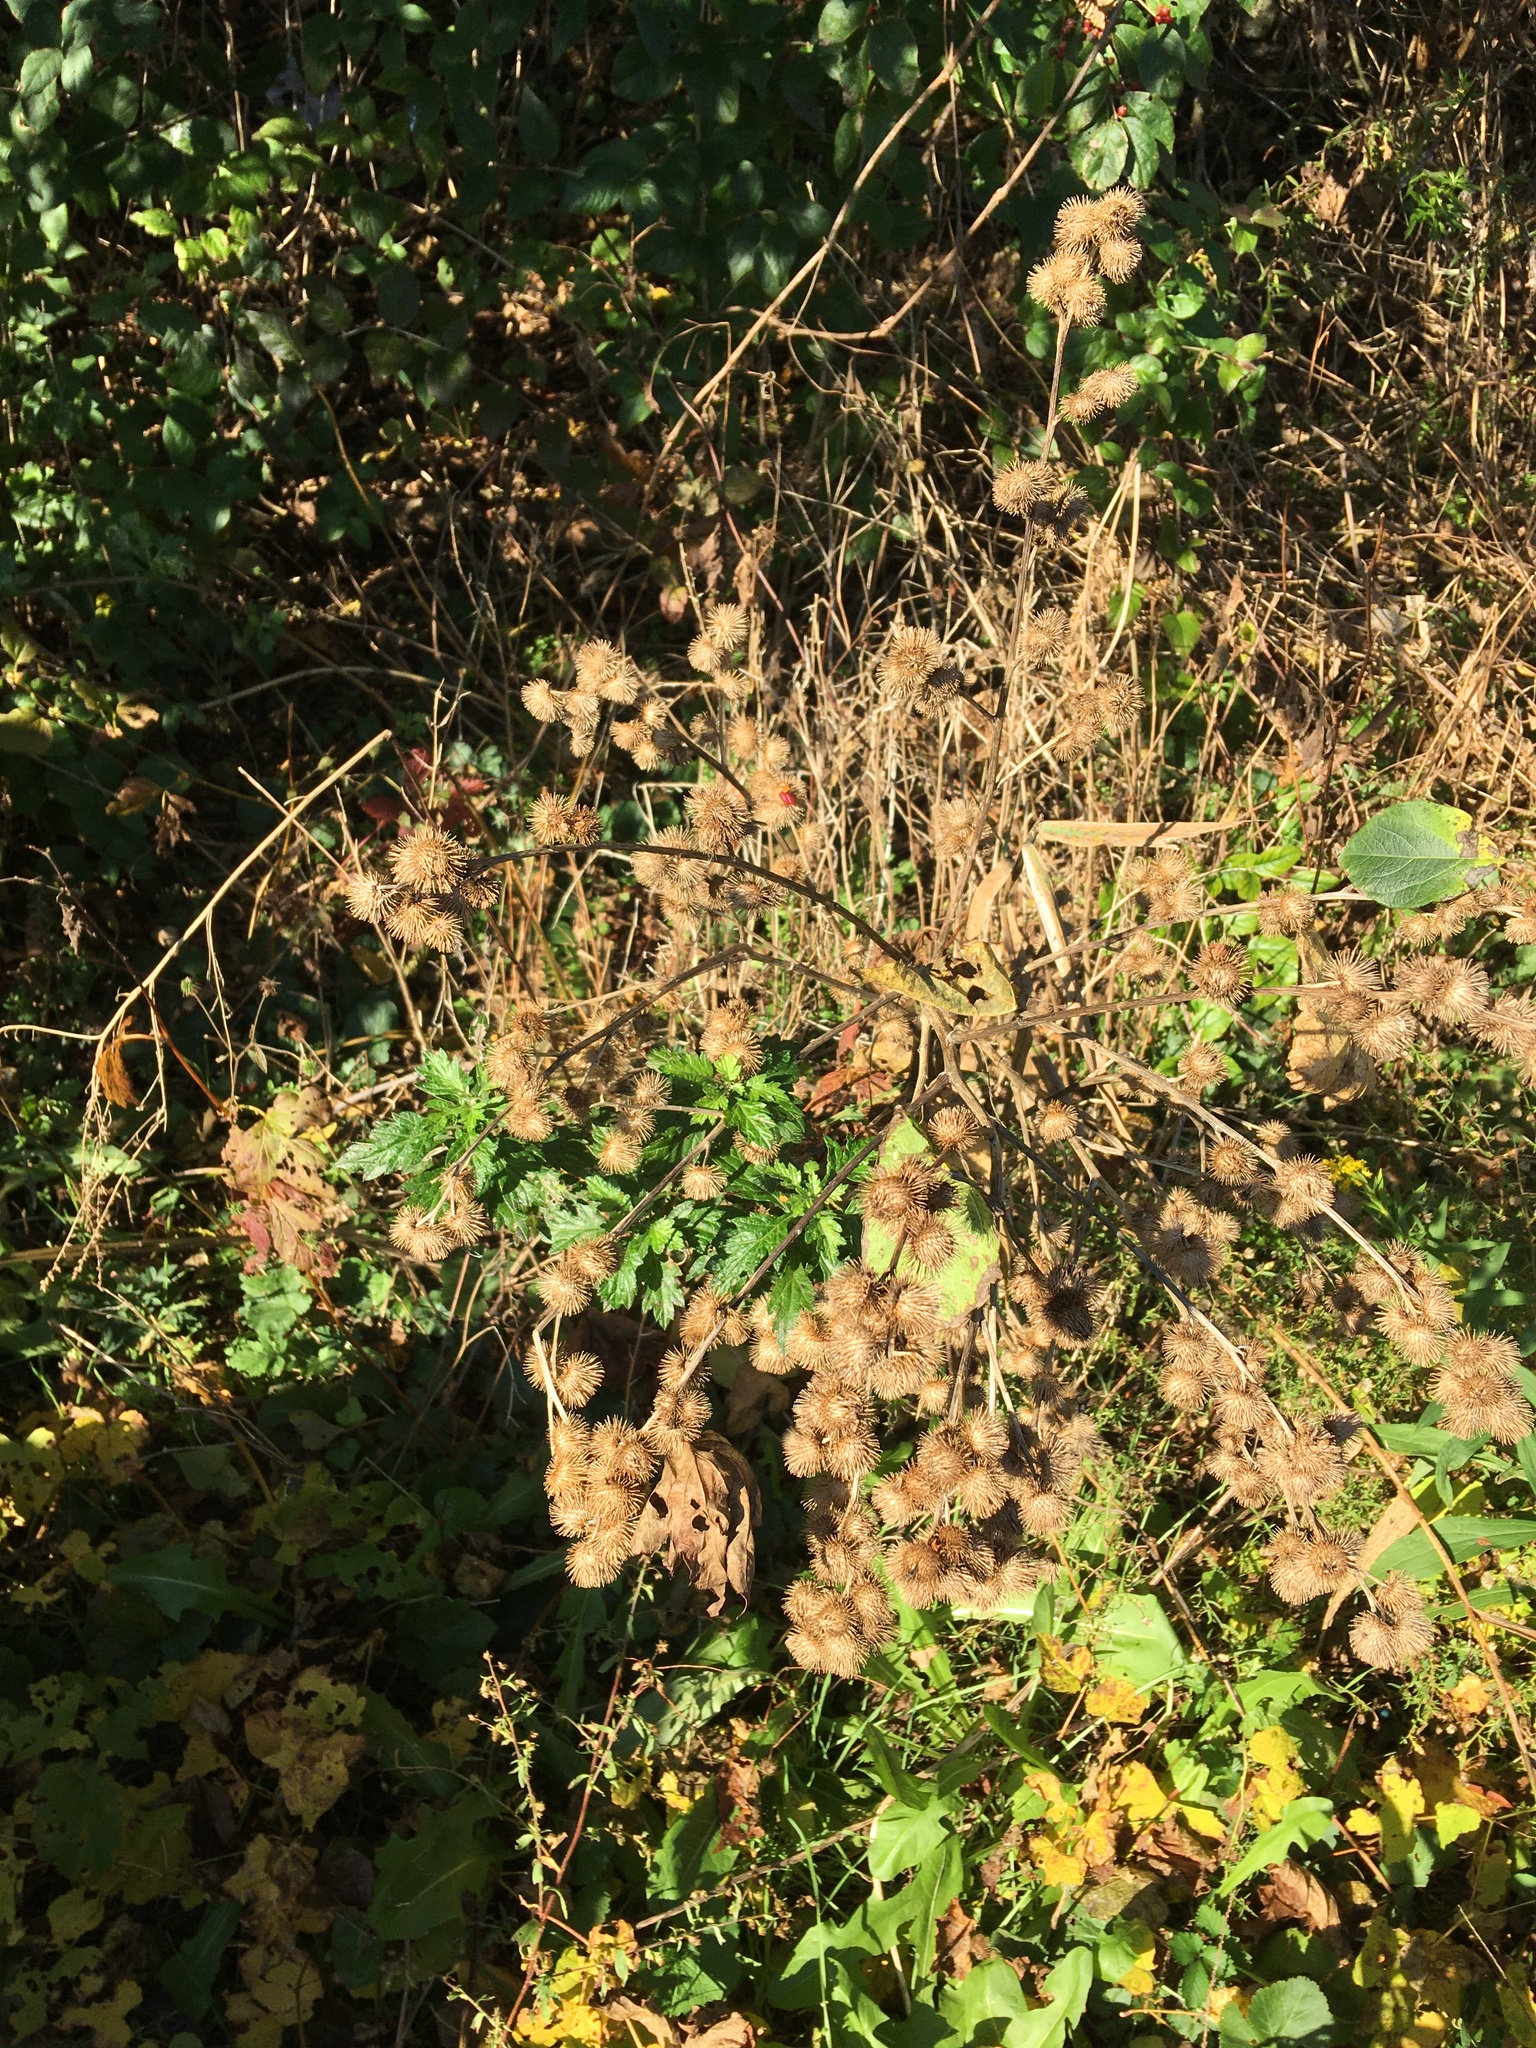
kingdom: Plantae
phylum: Tracheophyta
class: Magnoliopsida
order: Asterales
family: Asteraceae
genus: Arctium
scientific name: Arctium minus
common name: Lesser burdock
